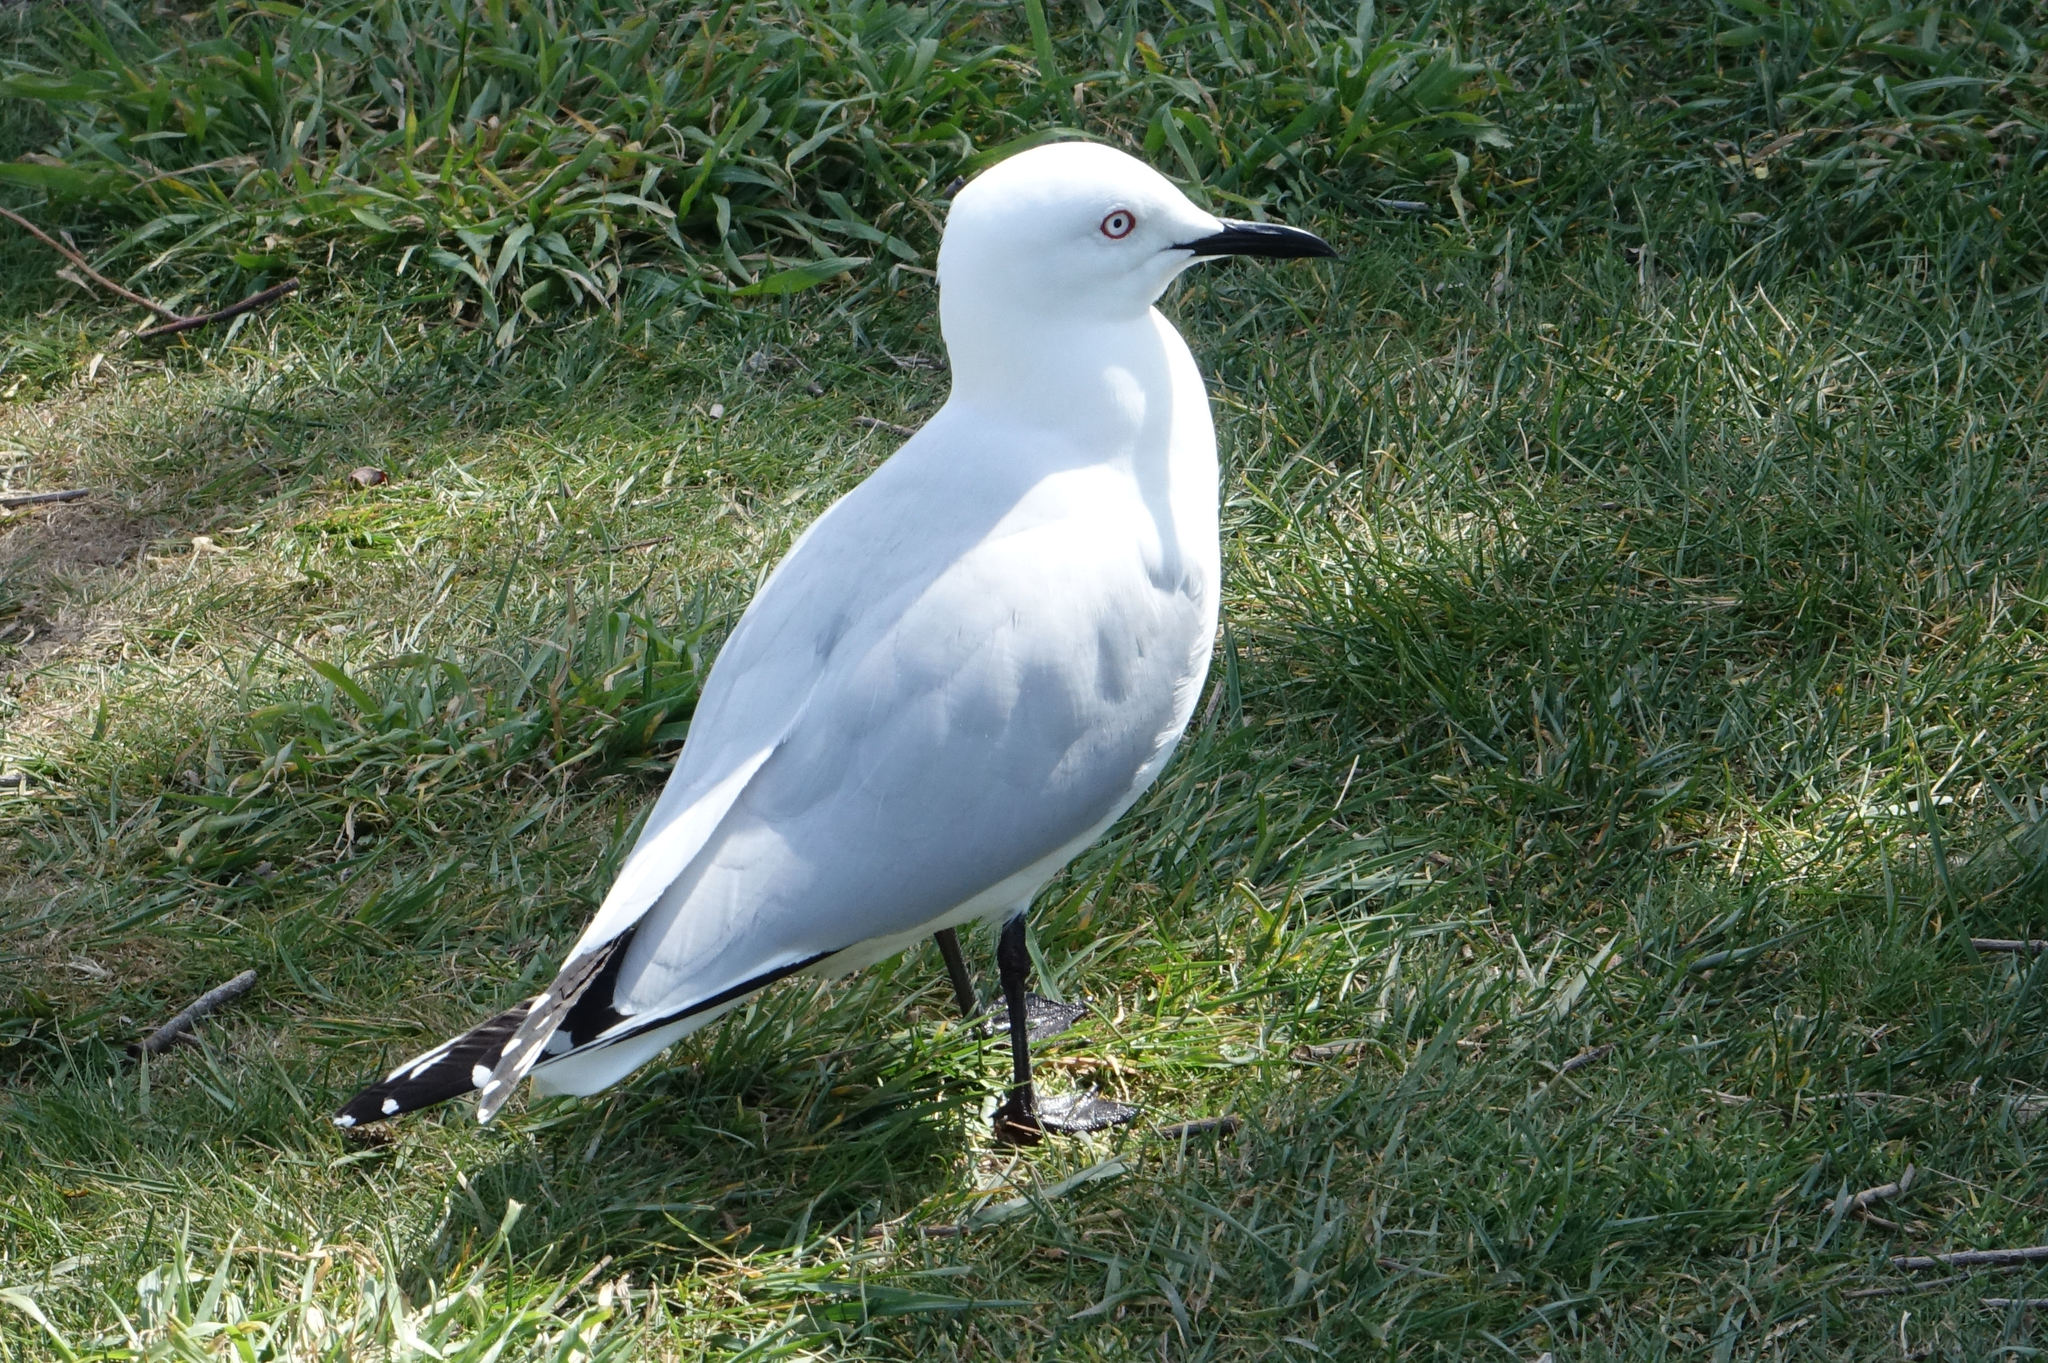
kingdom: Animalia
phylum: Chordata
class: Aves
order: Charadriiformes
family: Laridae
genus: Chroicocephalus
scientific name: Chroicocephalus bulleri
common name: Black-billed gull
